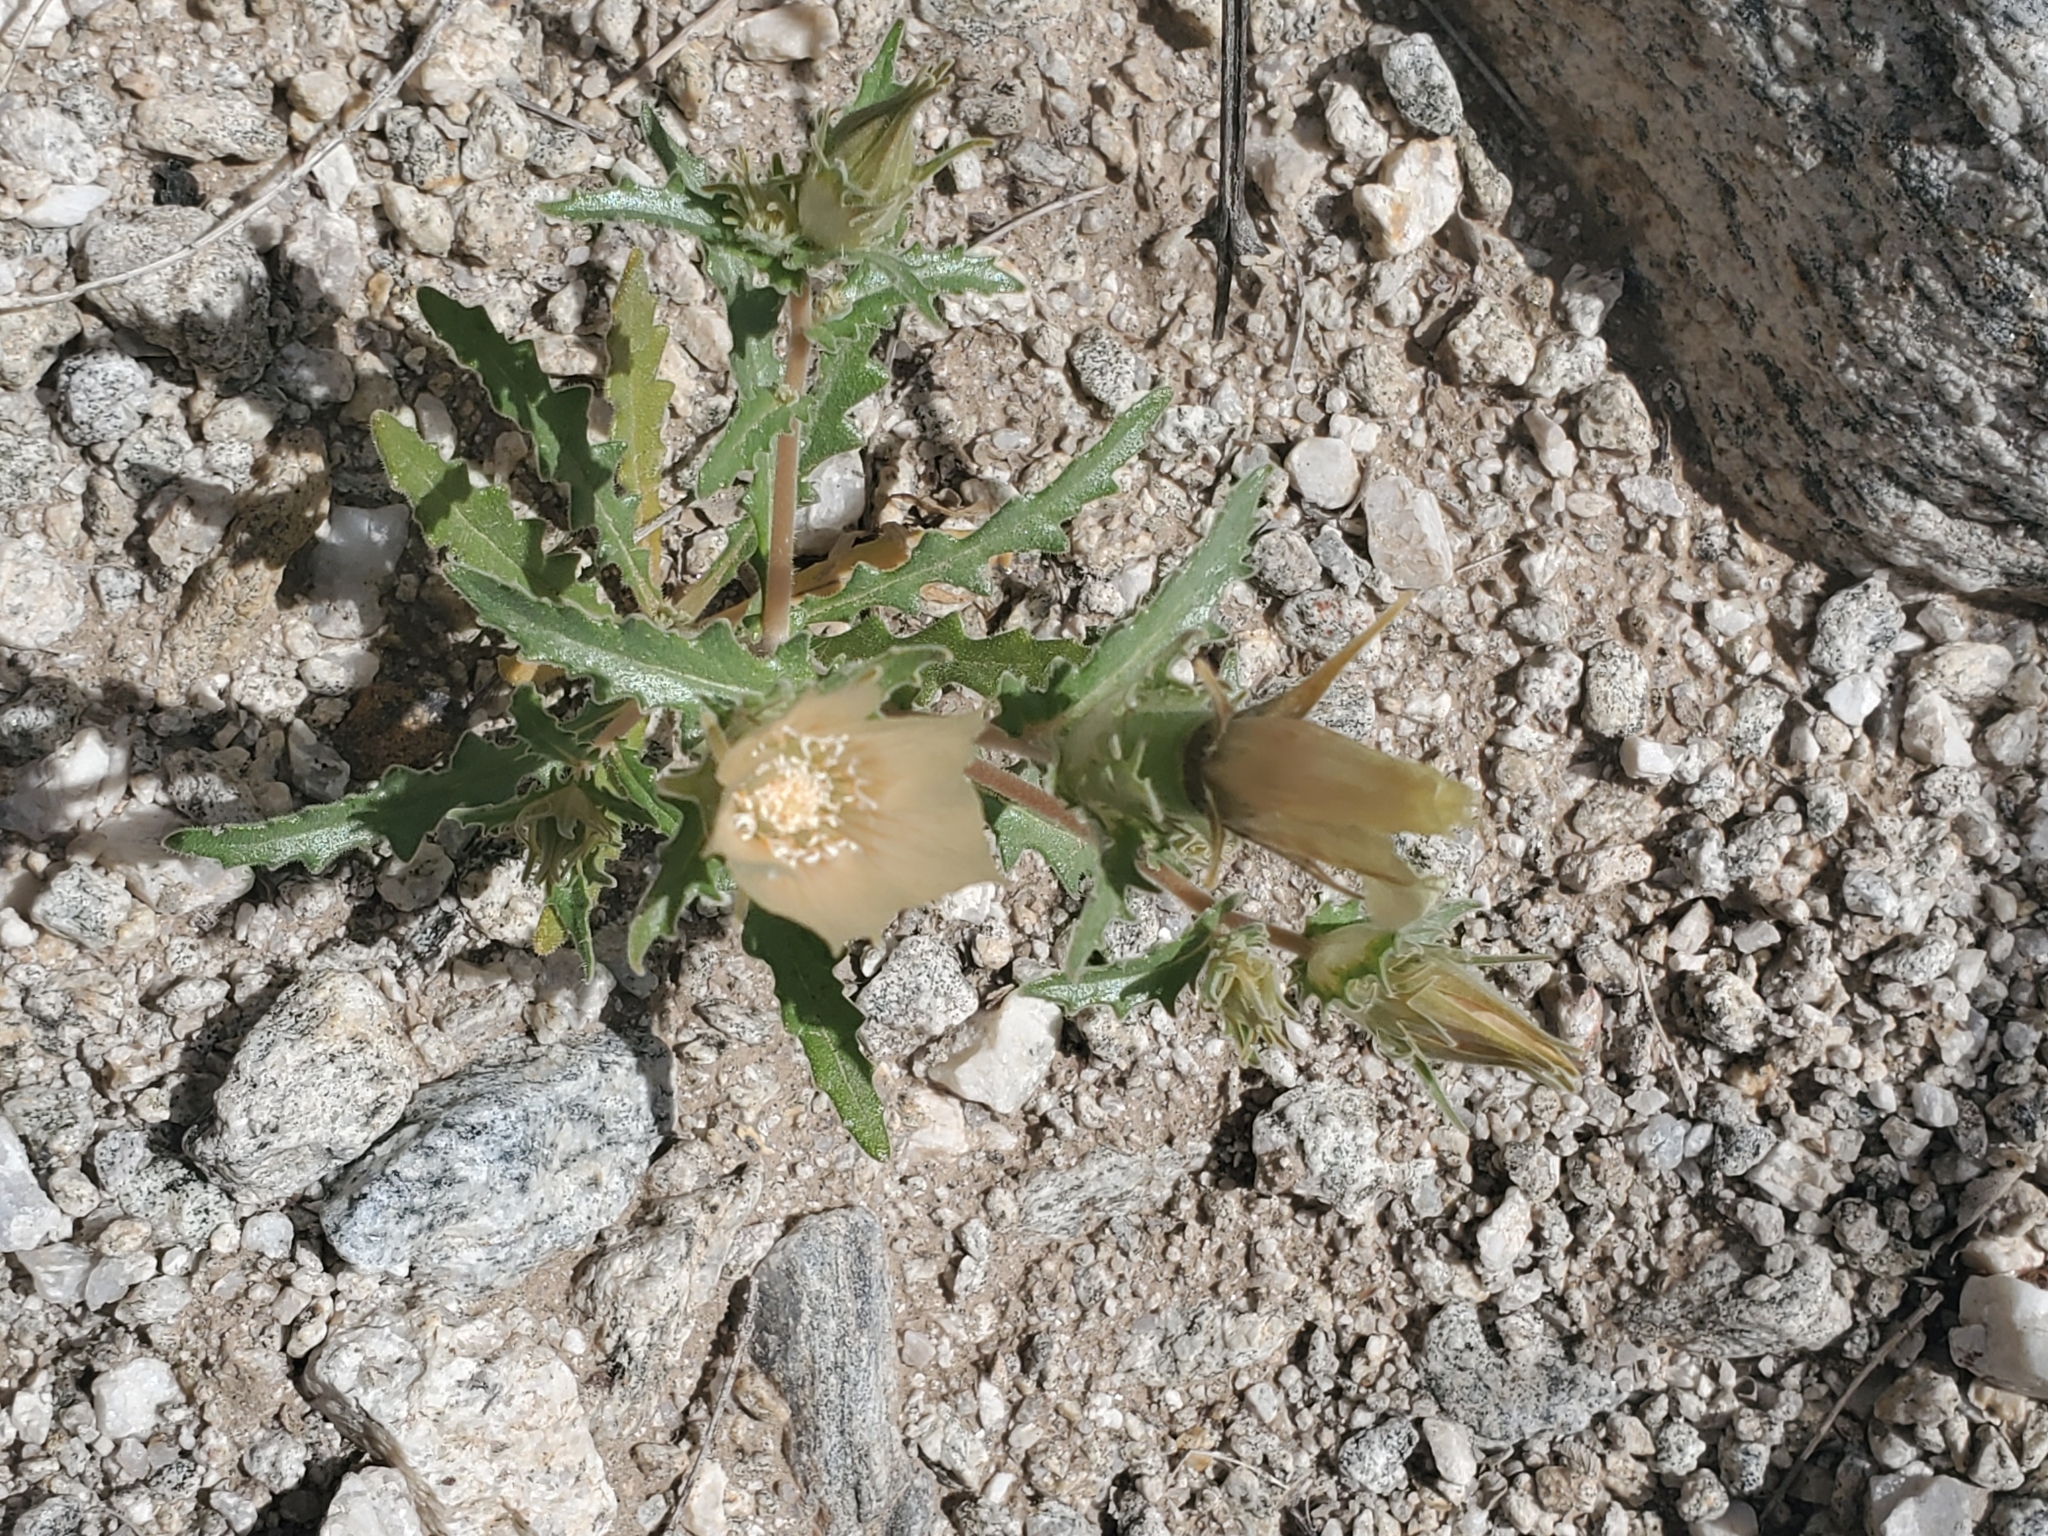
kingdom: Plantae
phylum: Tracheophyta
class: Magnoliopsida
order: Cornales
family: Loasaceae
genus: Mentzelia
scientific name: Mentzelia involucrata
